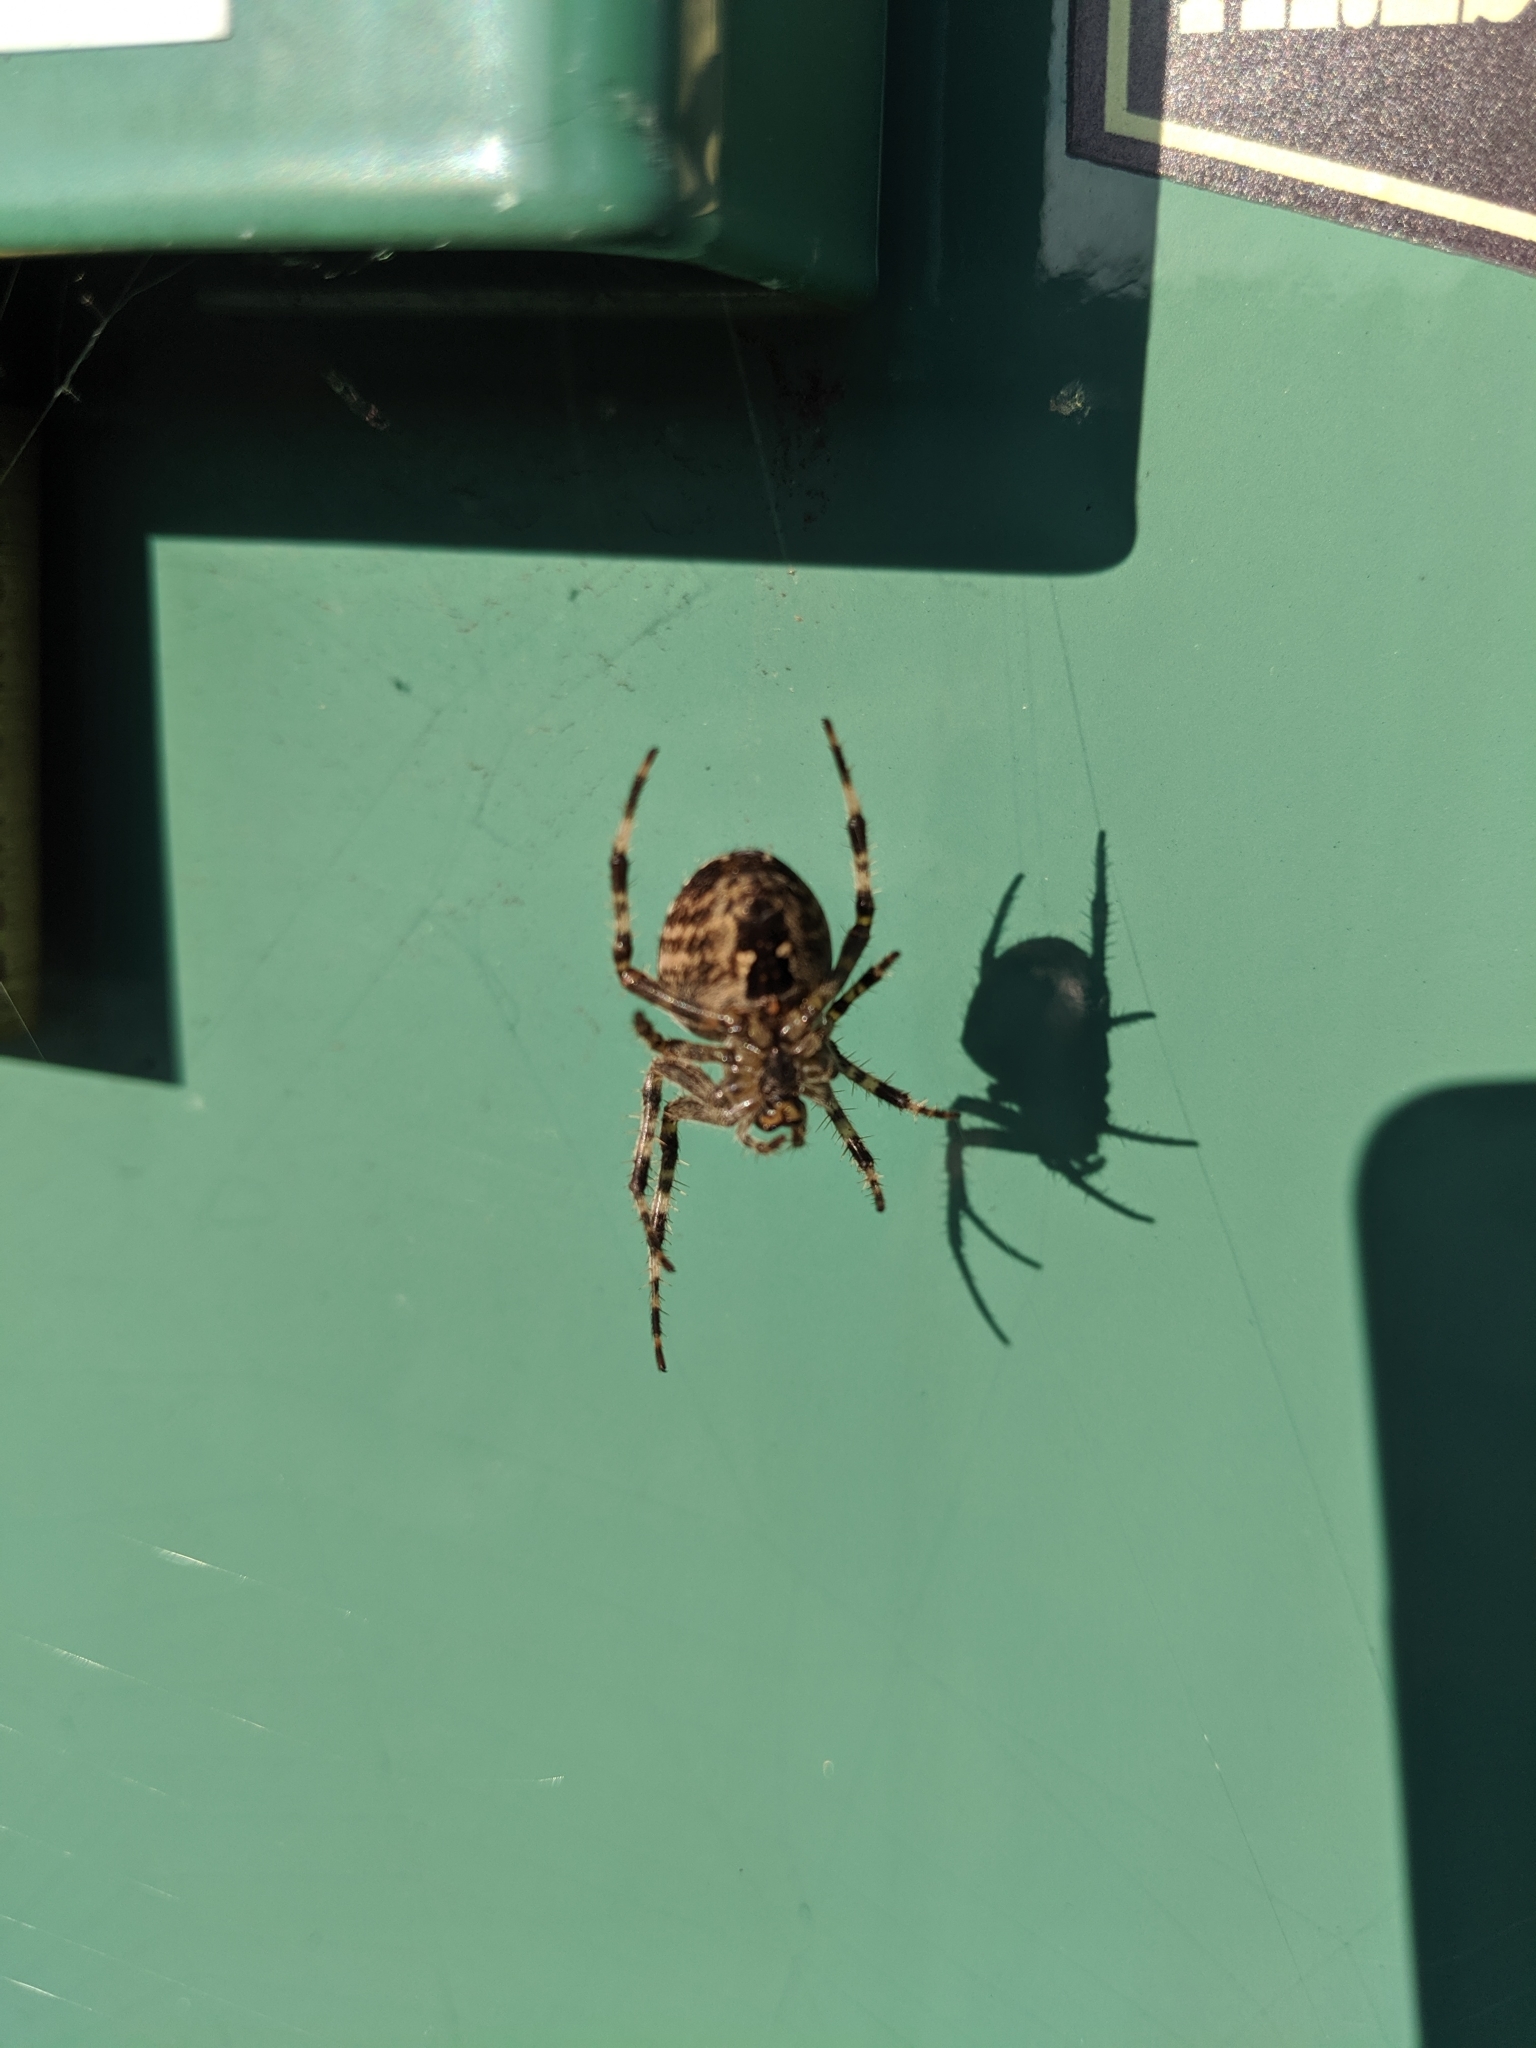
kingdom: Animalia
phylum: Arthropoda
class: Arachnida
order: Araneae
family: Araneidae
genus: Araneus
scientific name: Araneus diadematus
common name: Cross orbweaver
